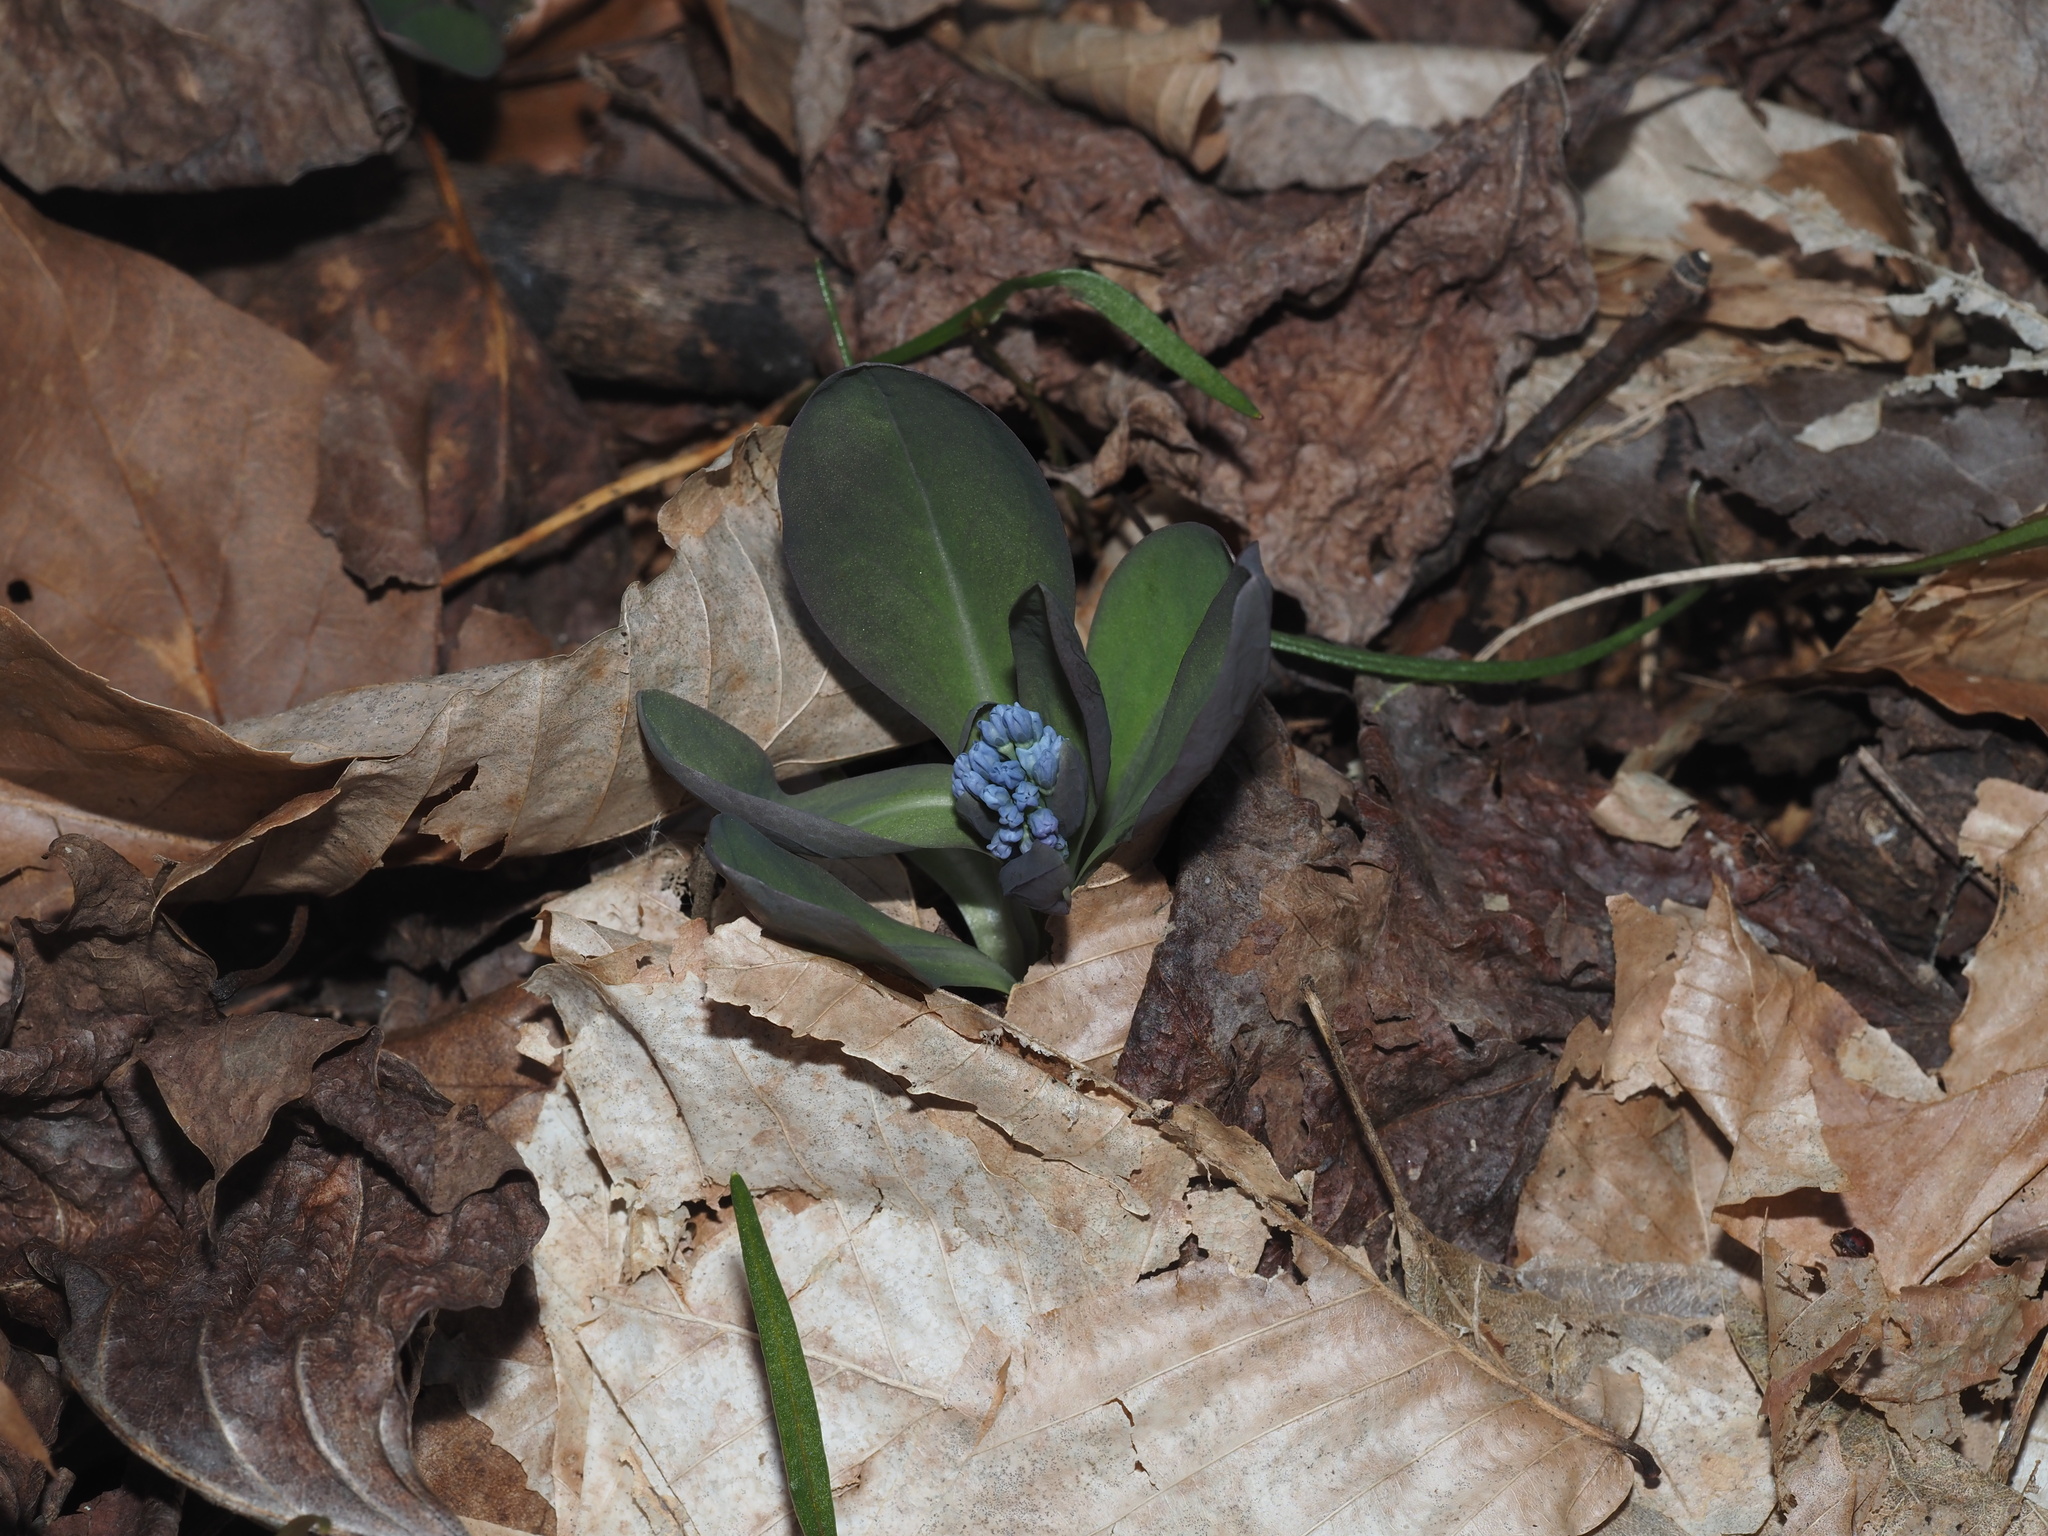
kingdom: Plantae
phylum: Tracheophyta
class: Magnoliopsida
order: Boraginales
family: Boraginaceae
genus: Mertensia
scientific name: Mertensia virginica
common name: Virginia bluebells
